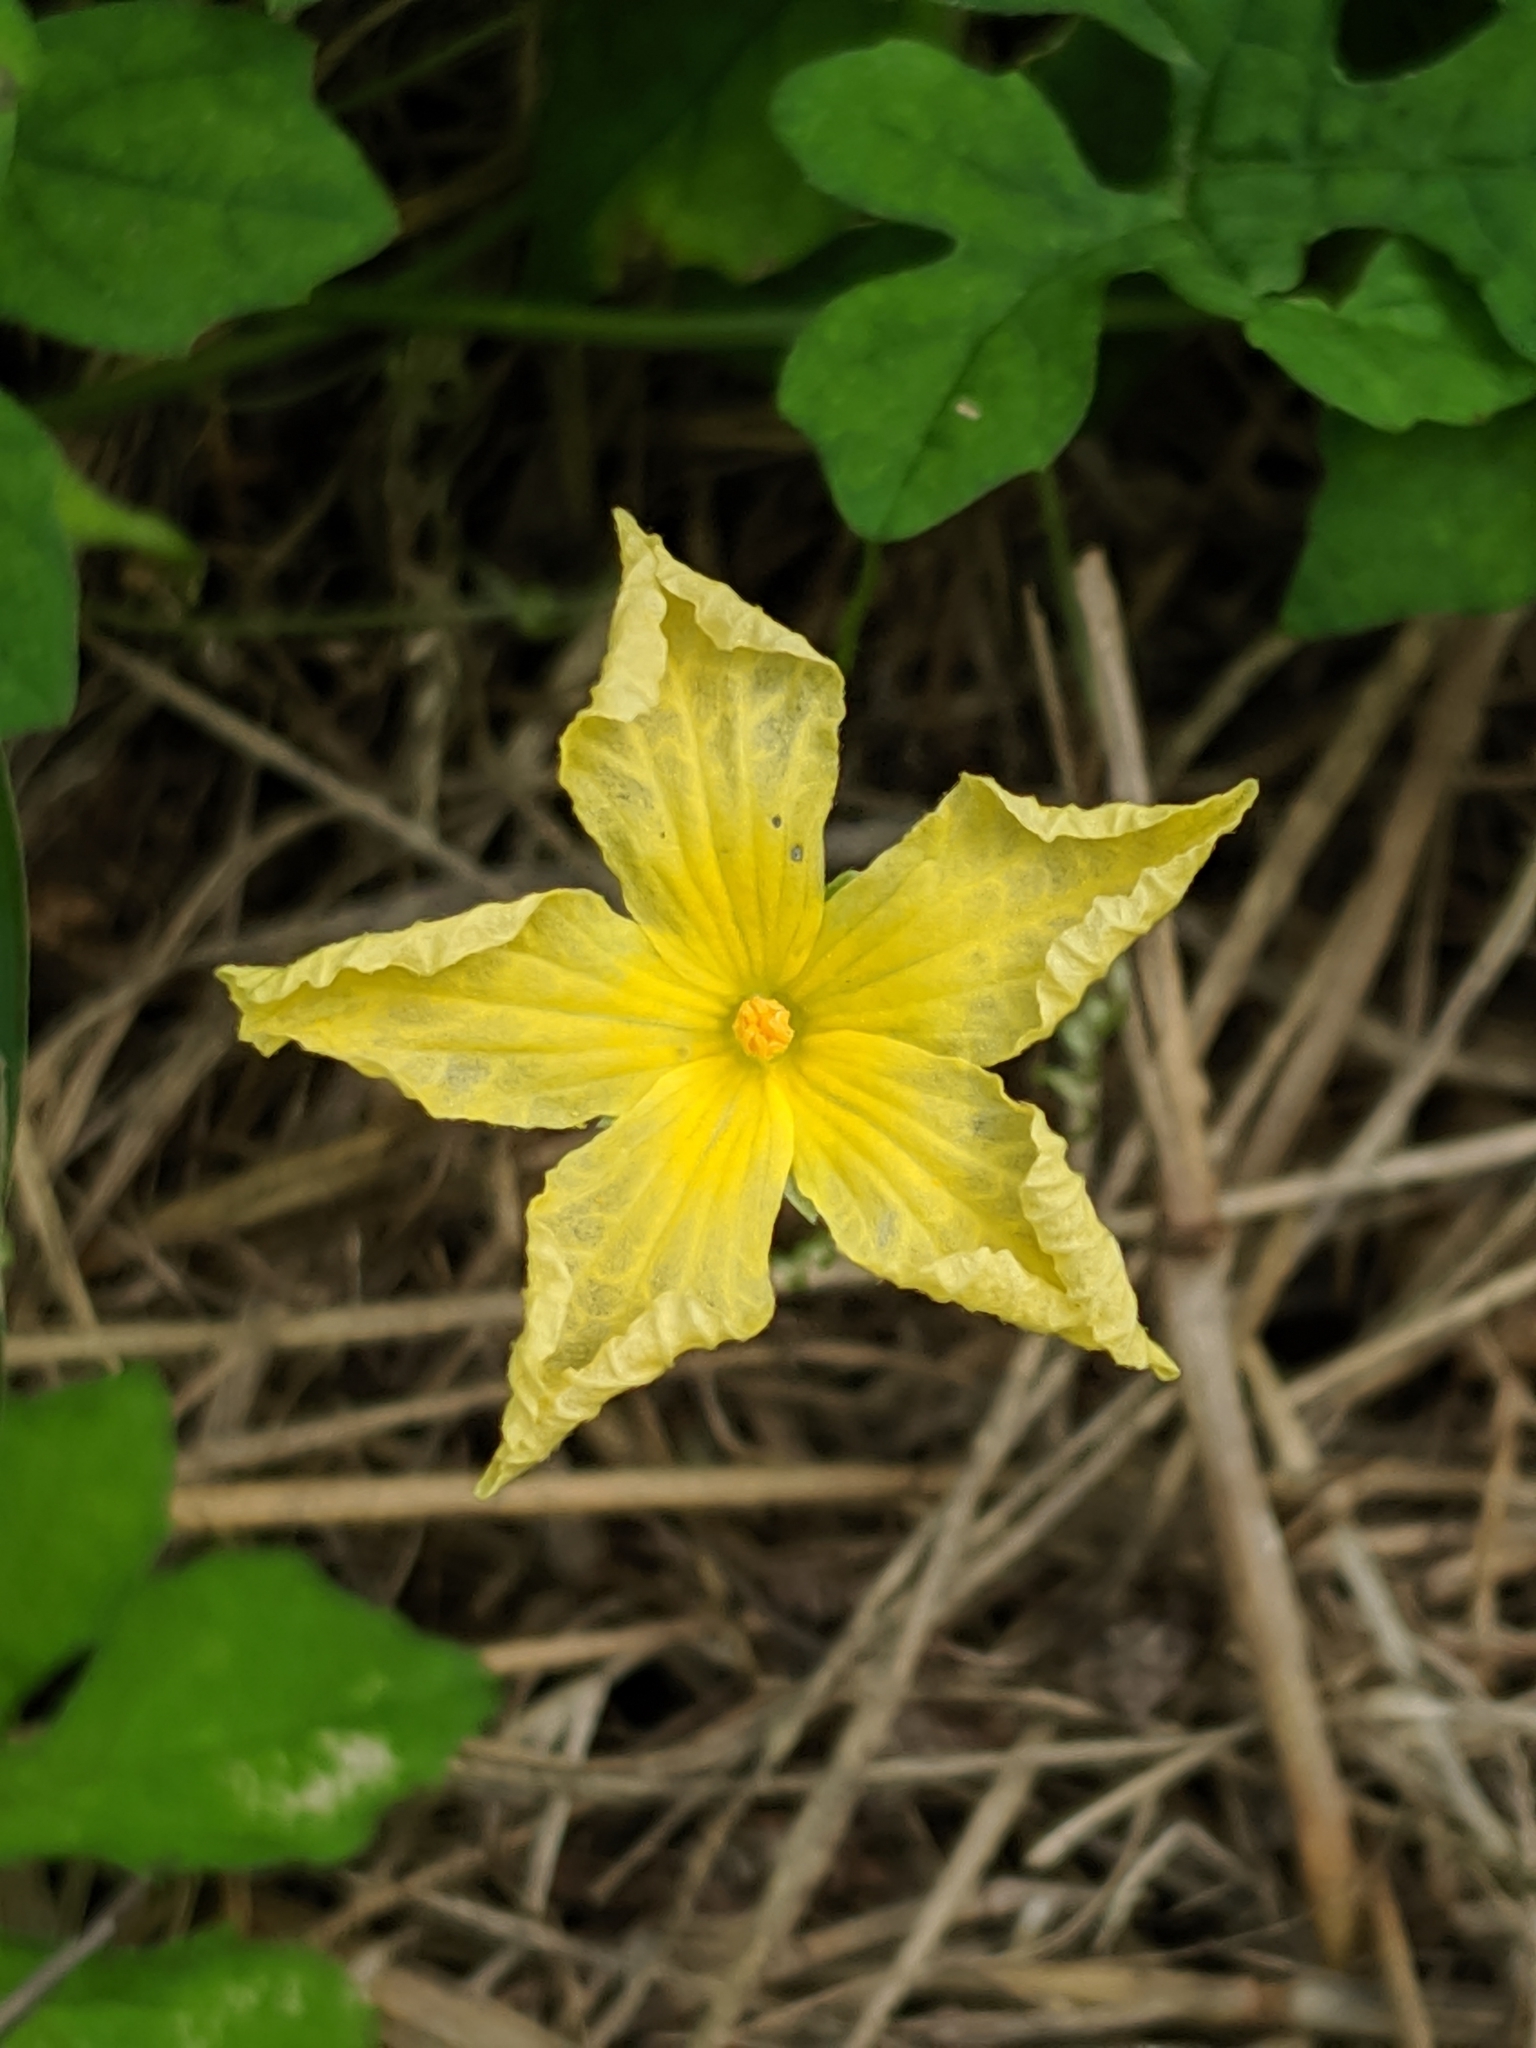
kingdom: Plantae
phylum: Tracheophyta
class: Magnoliopsida
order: Cucurbitales
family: Cucurbitaceae
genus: Momordica
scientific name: Momordica charantia
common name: Balsampear
